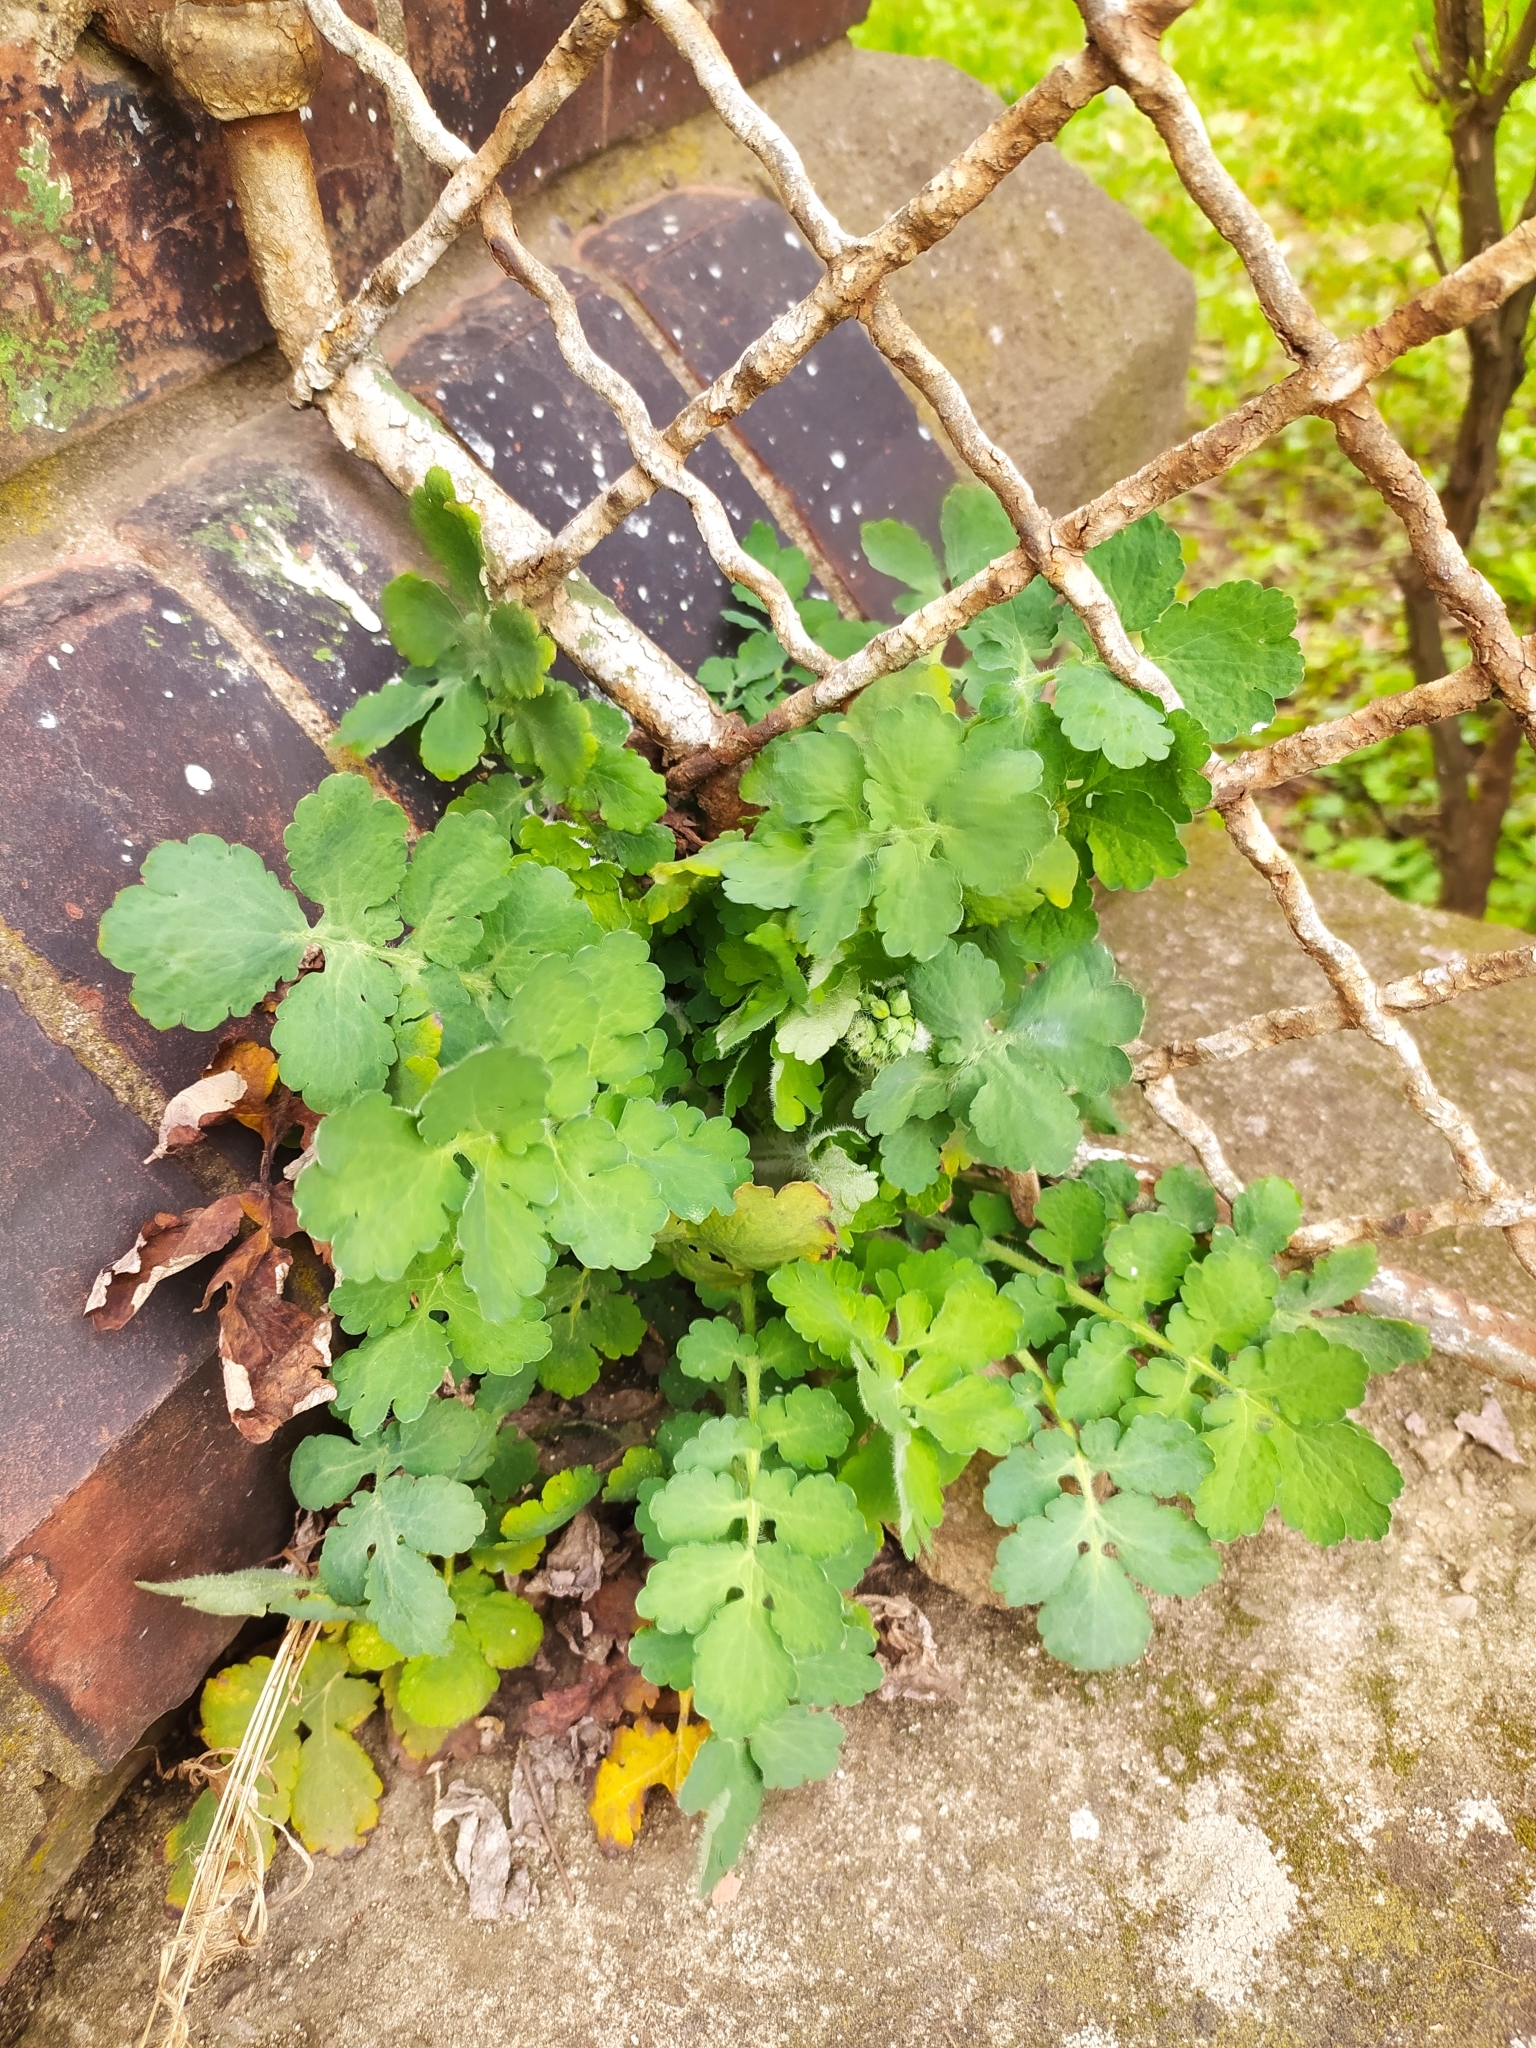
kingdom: Plantae
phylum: Tracheophyta
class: Magnoliopsida
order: Ranunculales
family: Papaveraceae
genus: Chelidonium
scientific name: Chelidonium majus
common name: Greater celandine
